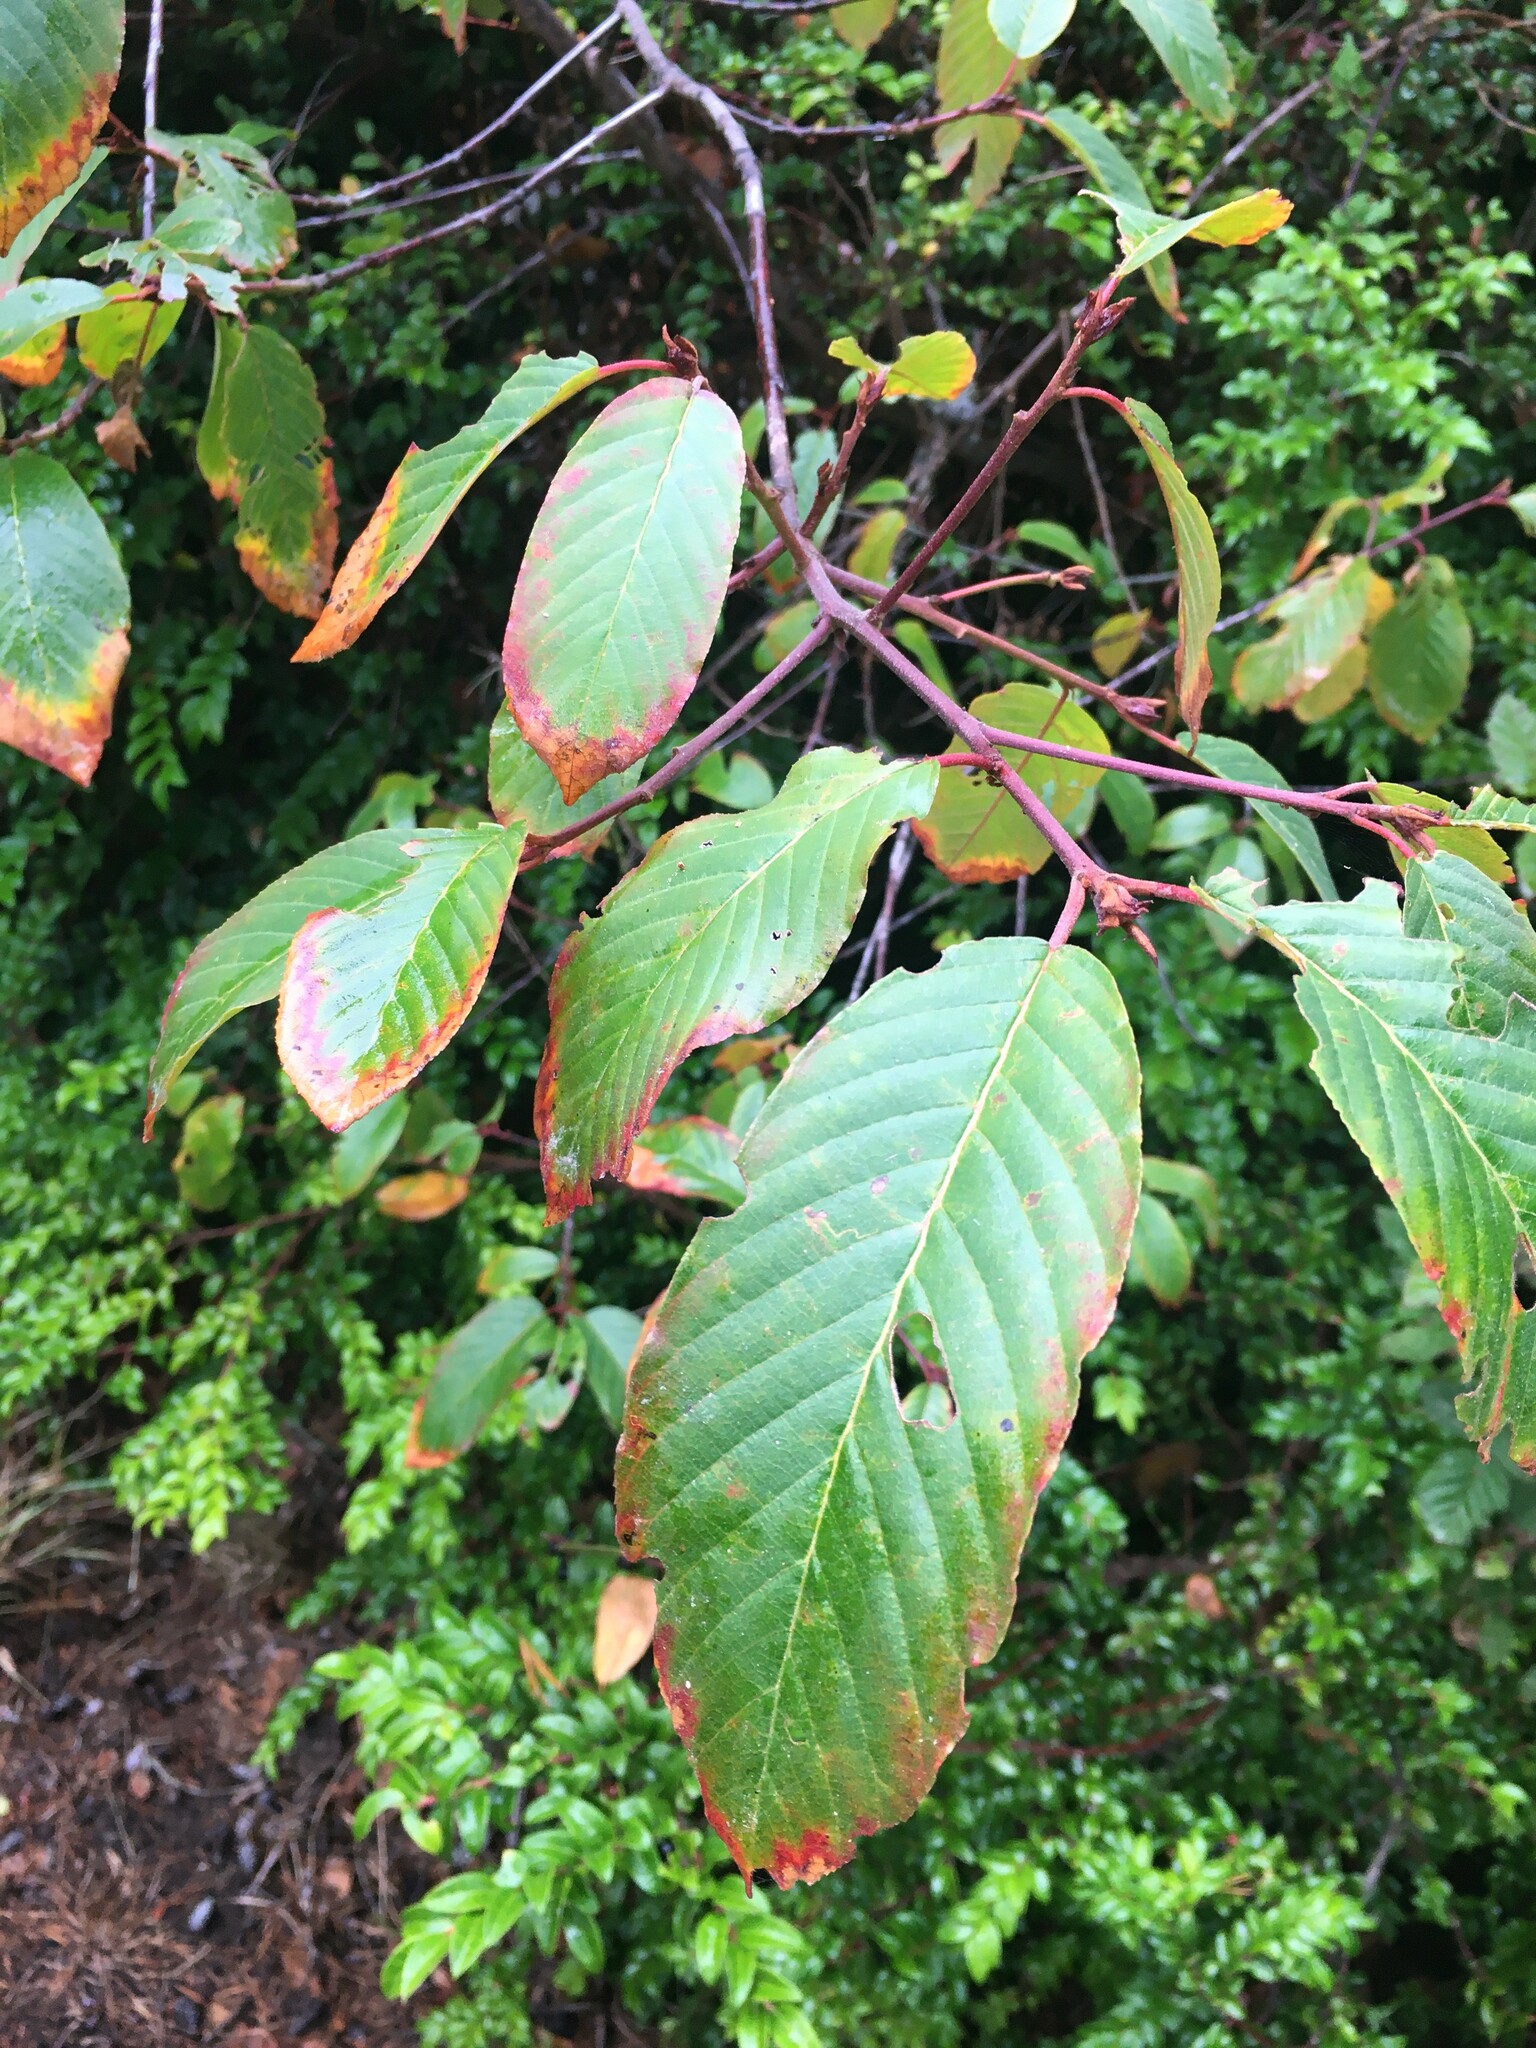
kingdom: Plantae
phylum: Tracheophyta
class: Magnoliopsida
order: Rosales
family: Rhamnaceae
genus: Frangula
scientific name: Frangula purshiana
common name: Cascara buckthorn
